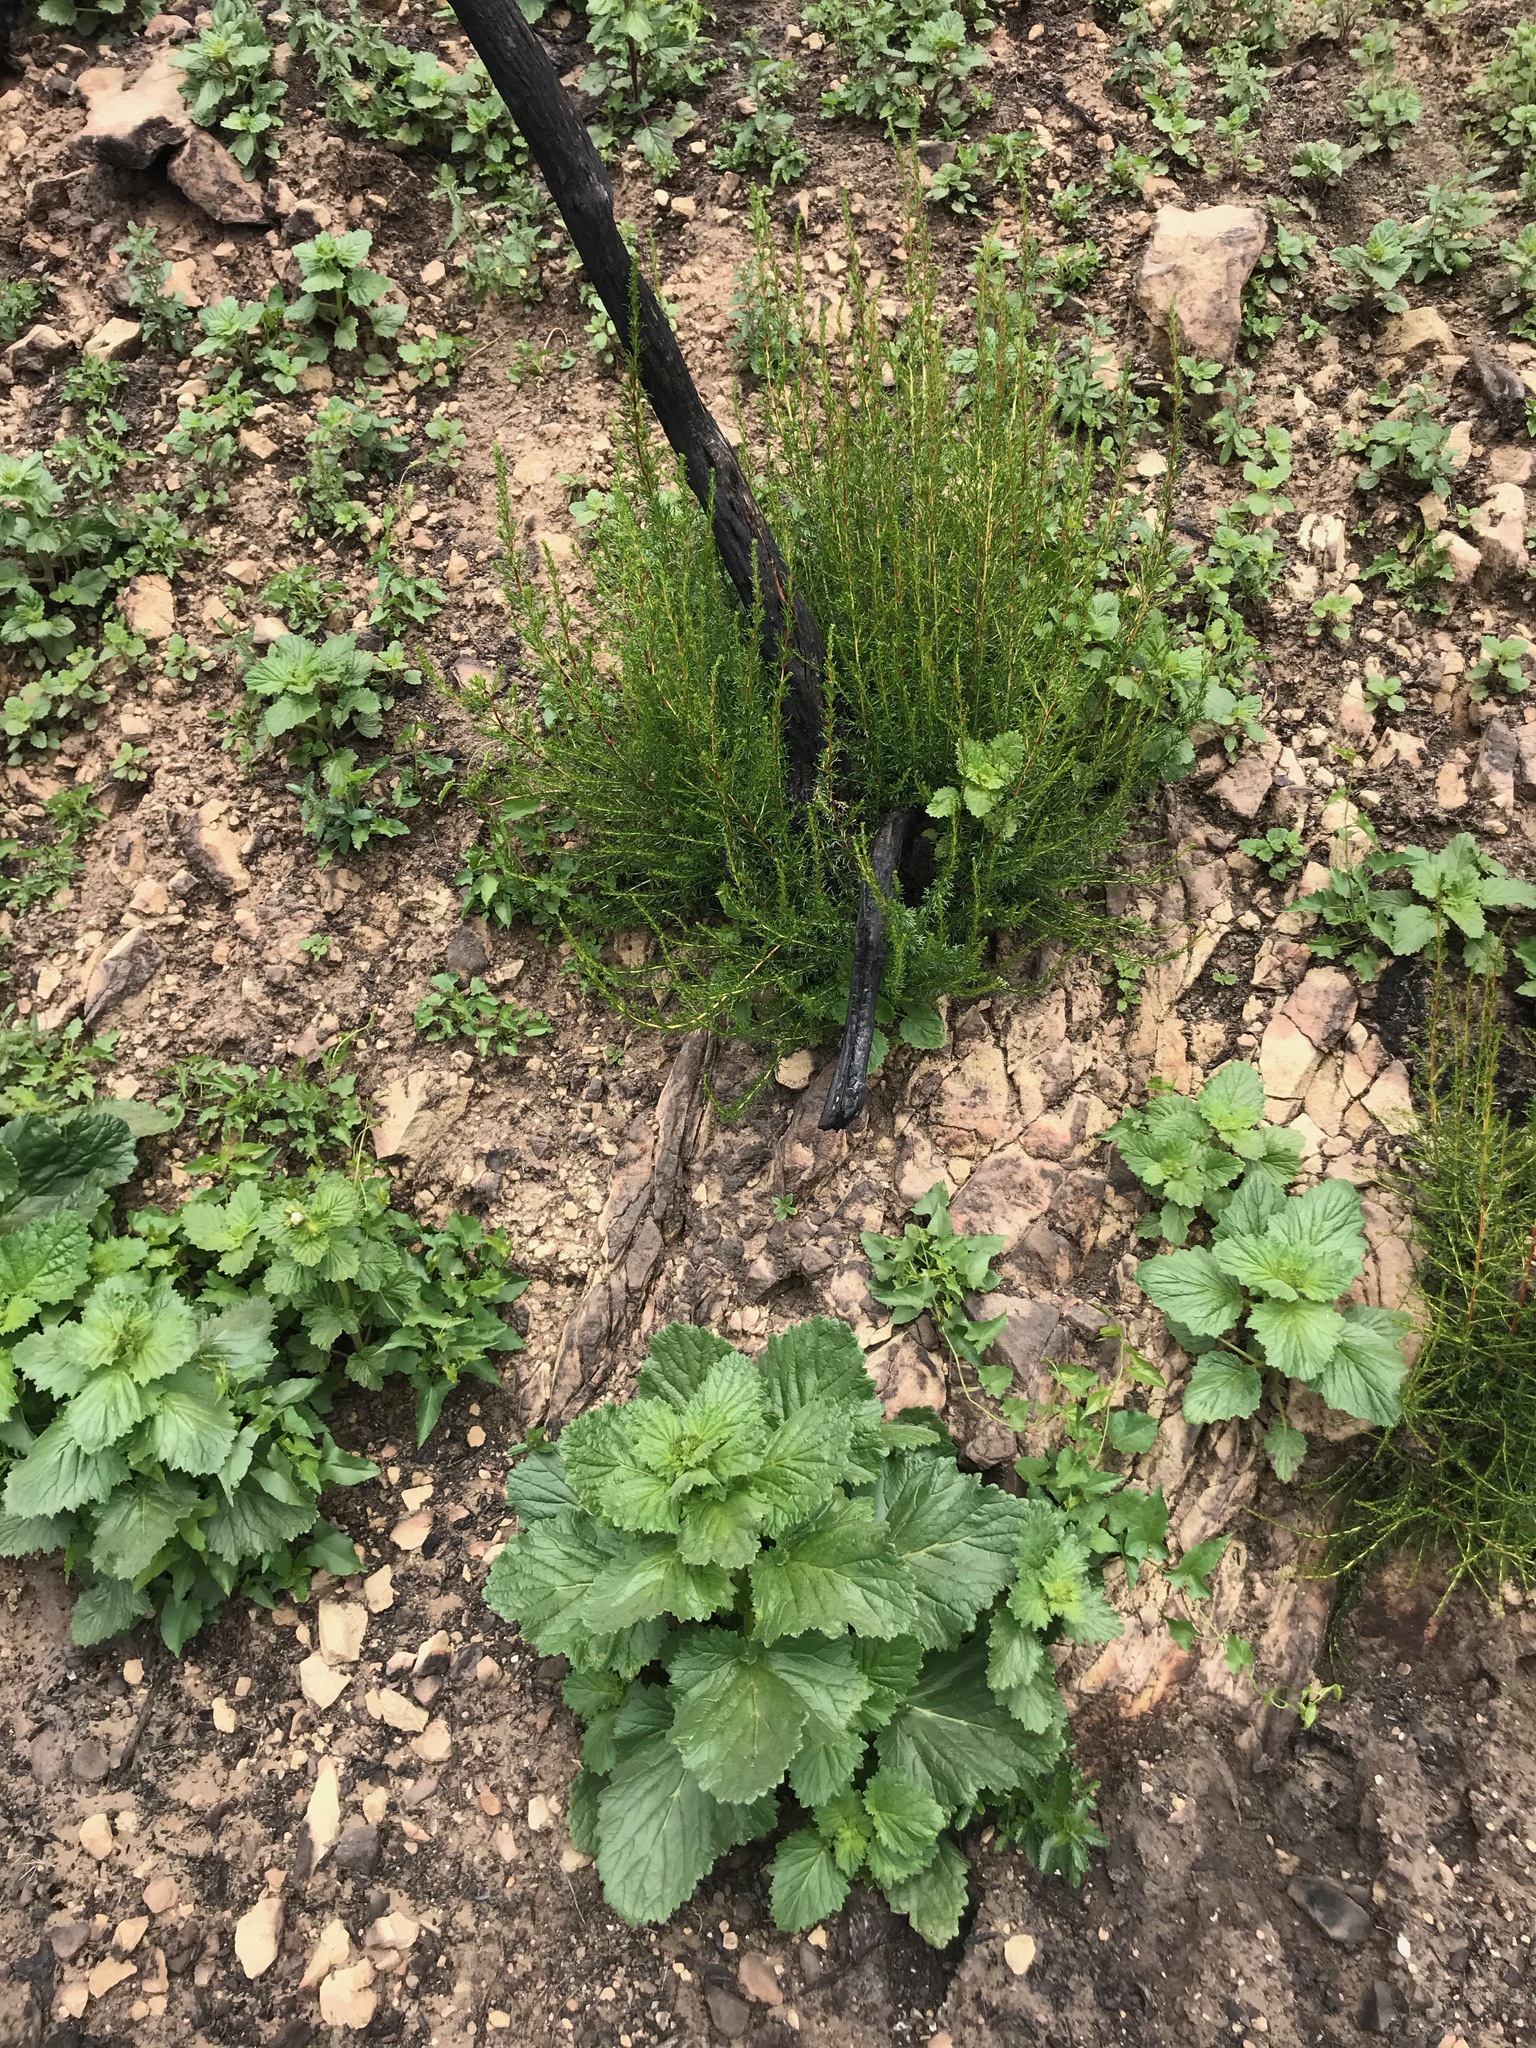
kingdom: Plantae
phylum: Tracheophyta
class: Magnoliopsida
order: Rosales
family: Rosaceae
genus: Adenostoma
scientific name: Adenostoma fasciculatum
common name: Chamise
